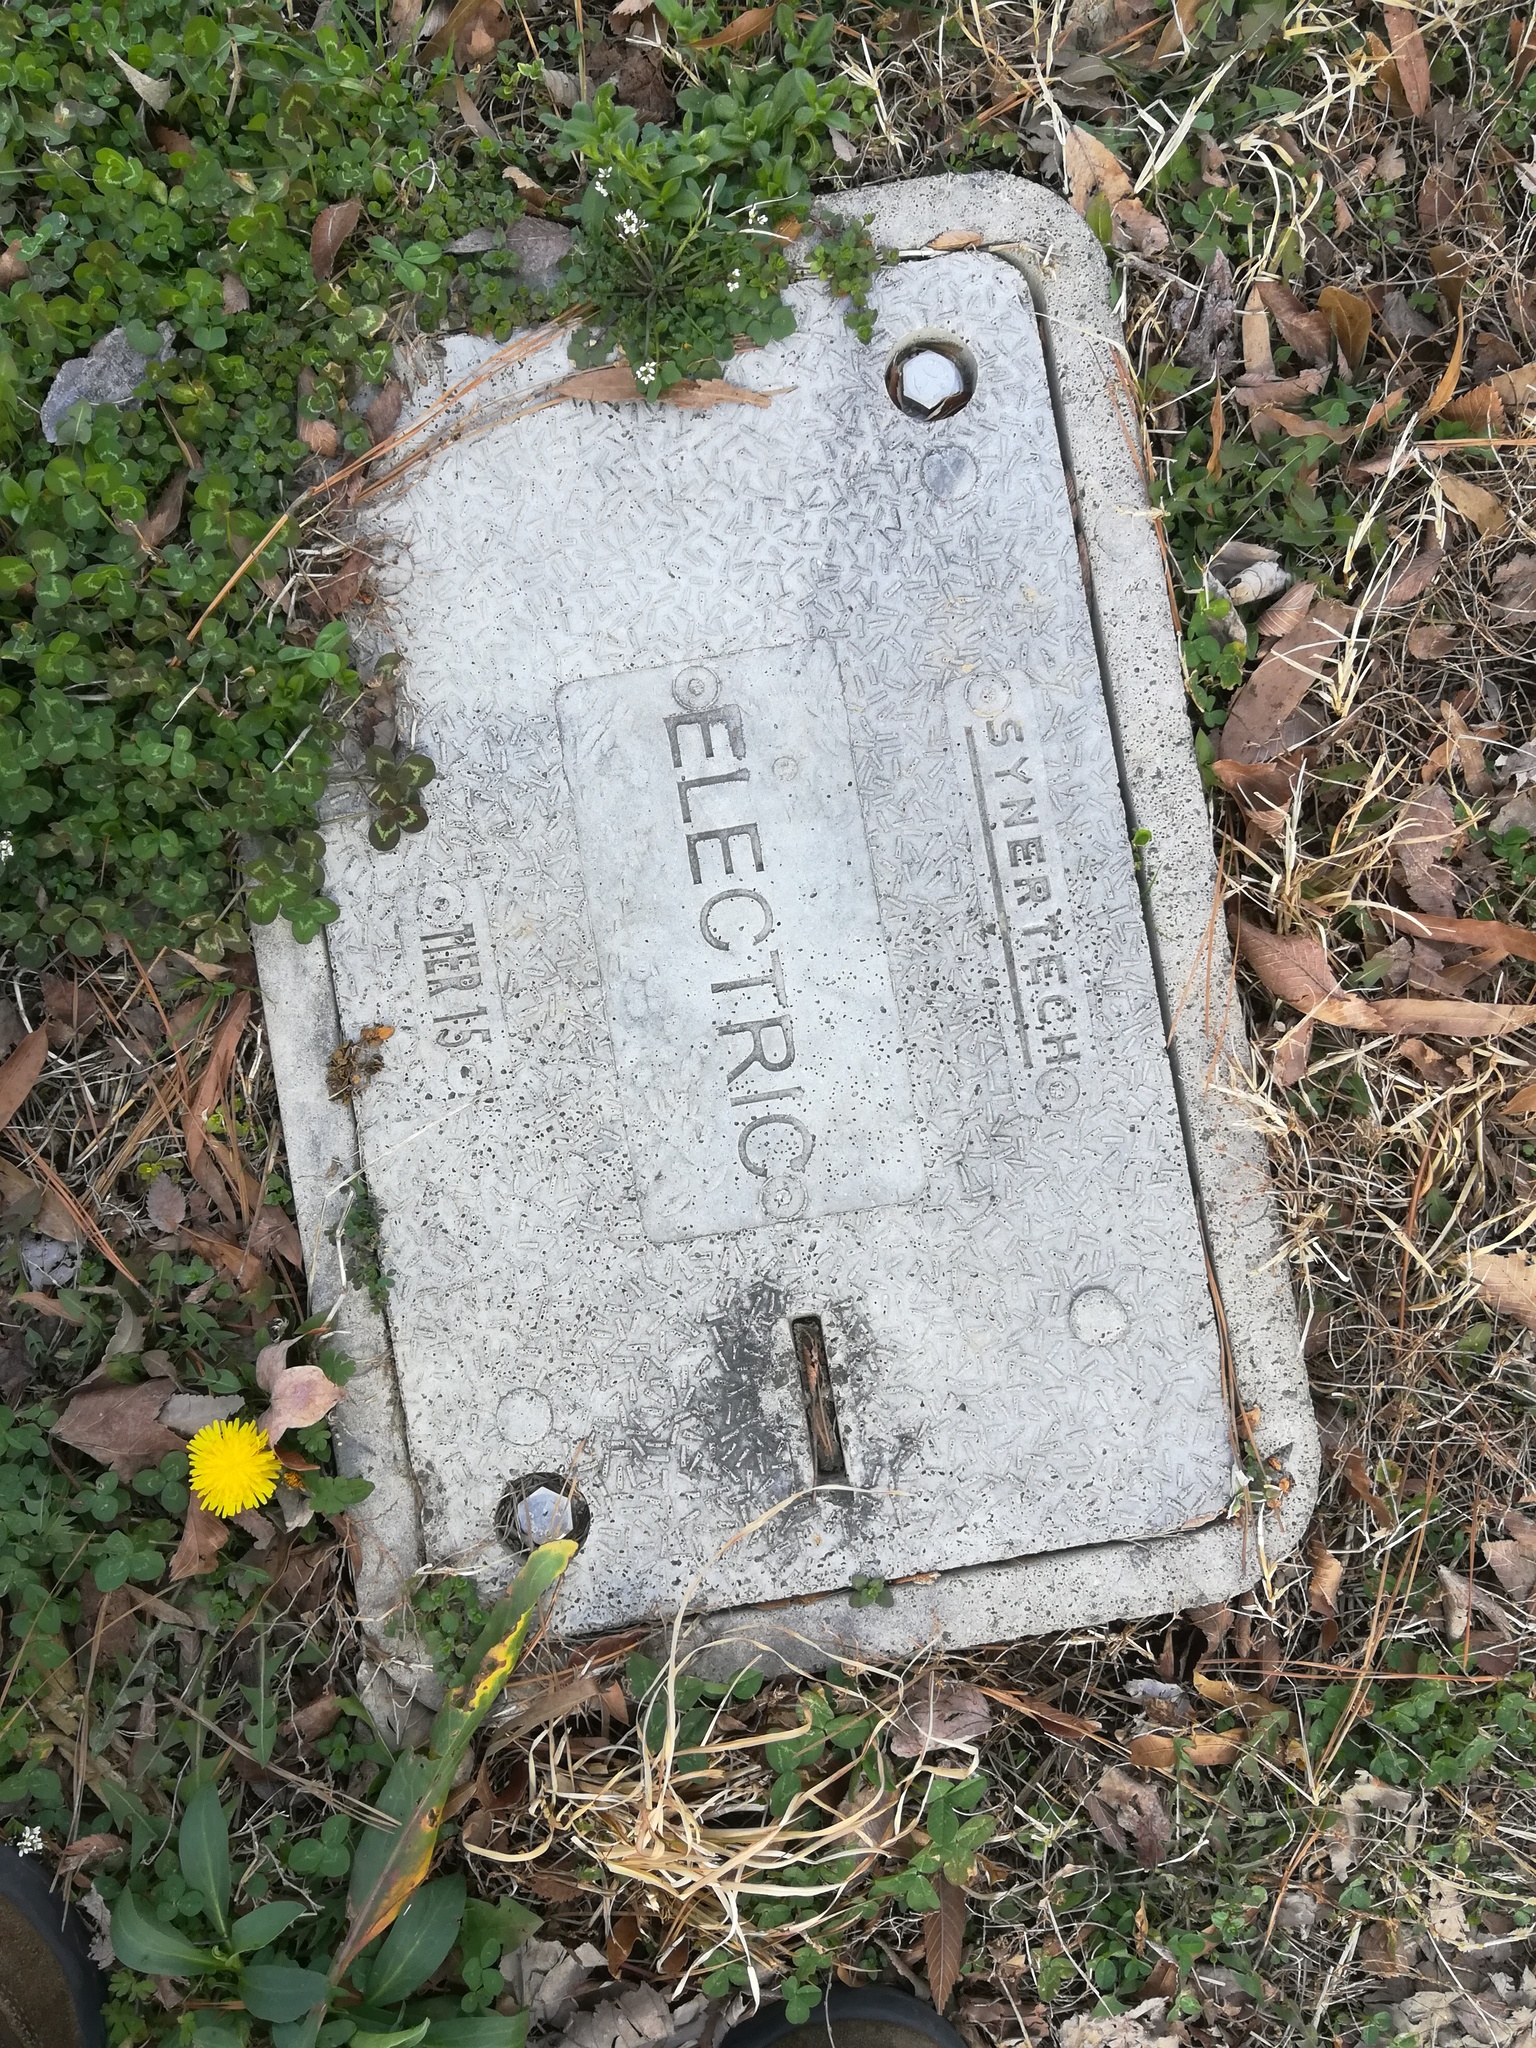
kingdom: Plantae
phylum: Tracheophyta
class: Magnoliopsida
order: Fabales
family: Fabaceae
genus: Trifolium
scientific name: Trifolium repens
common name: White clover
